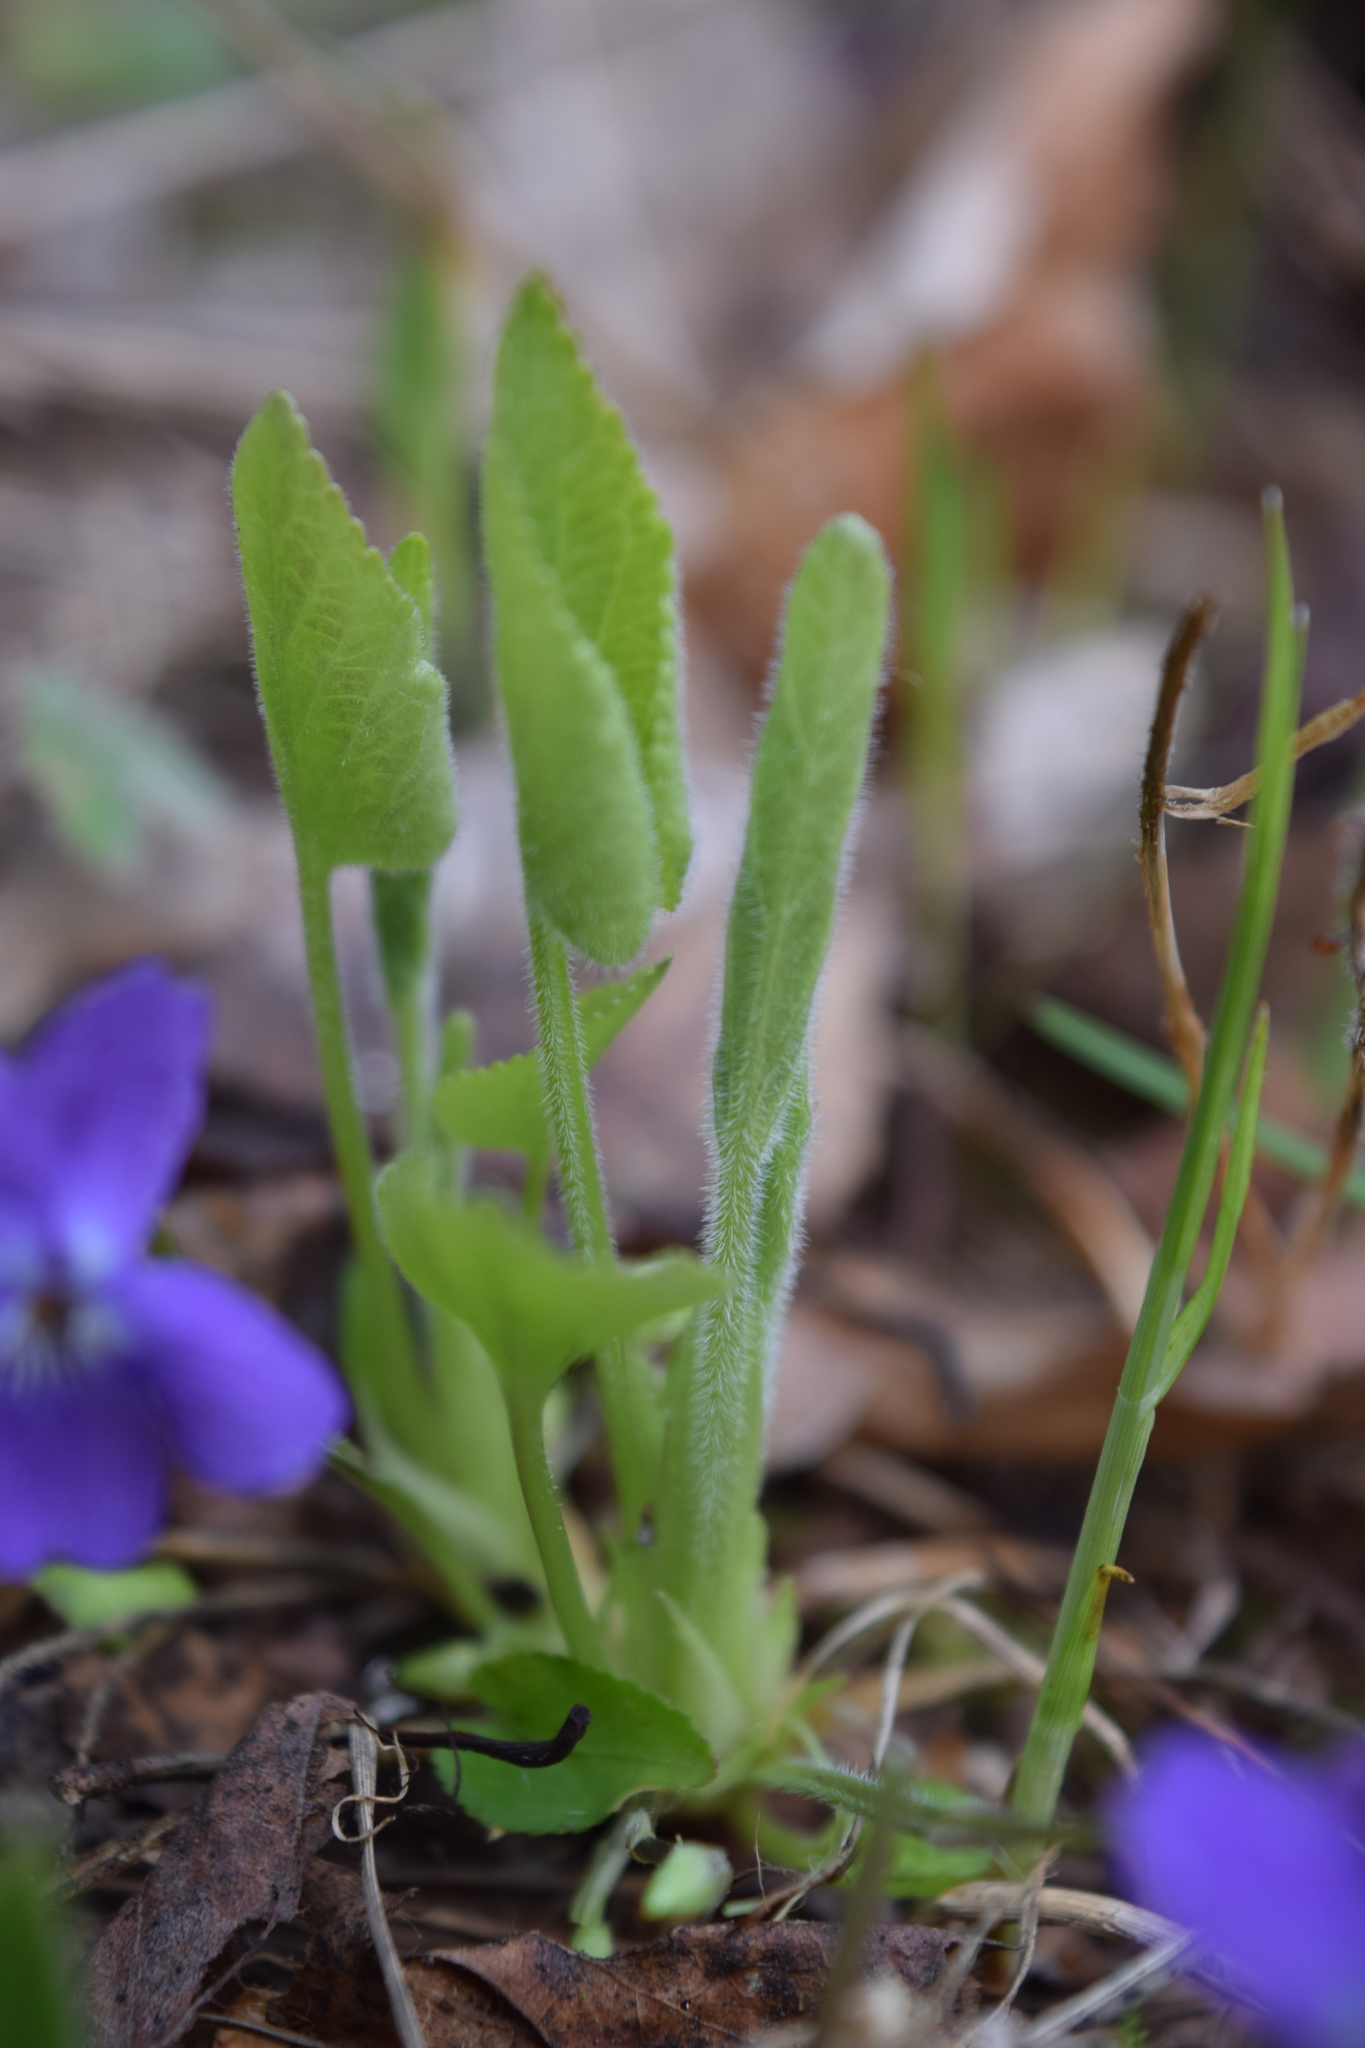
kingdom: Plantae
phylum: Tracheophyta
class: Magnoliopsida
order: Malpighiales
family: Violaceae
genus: Viola
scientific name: Viola hirta
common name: Hairy violet
